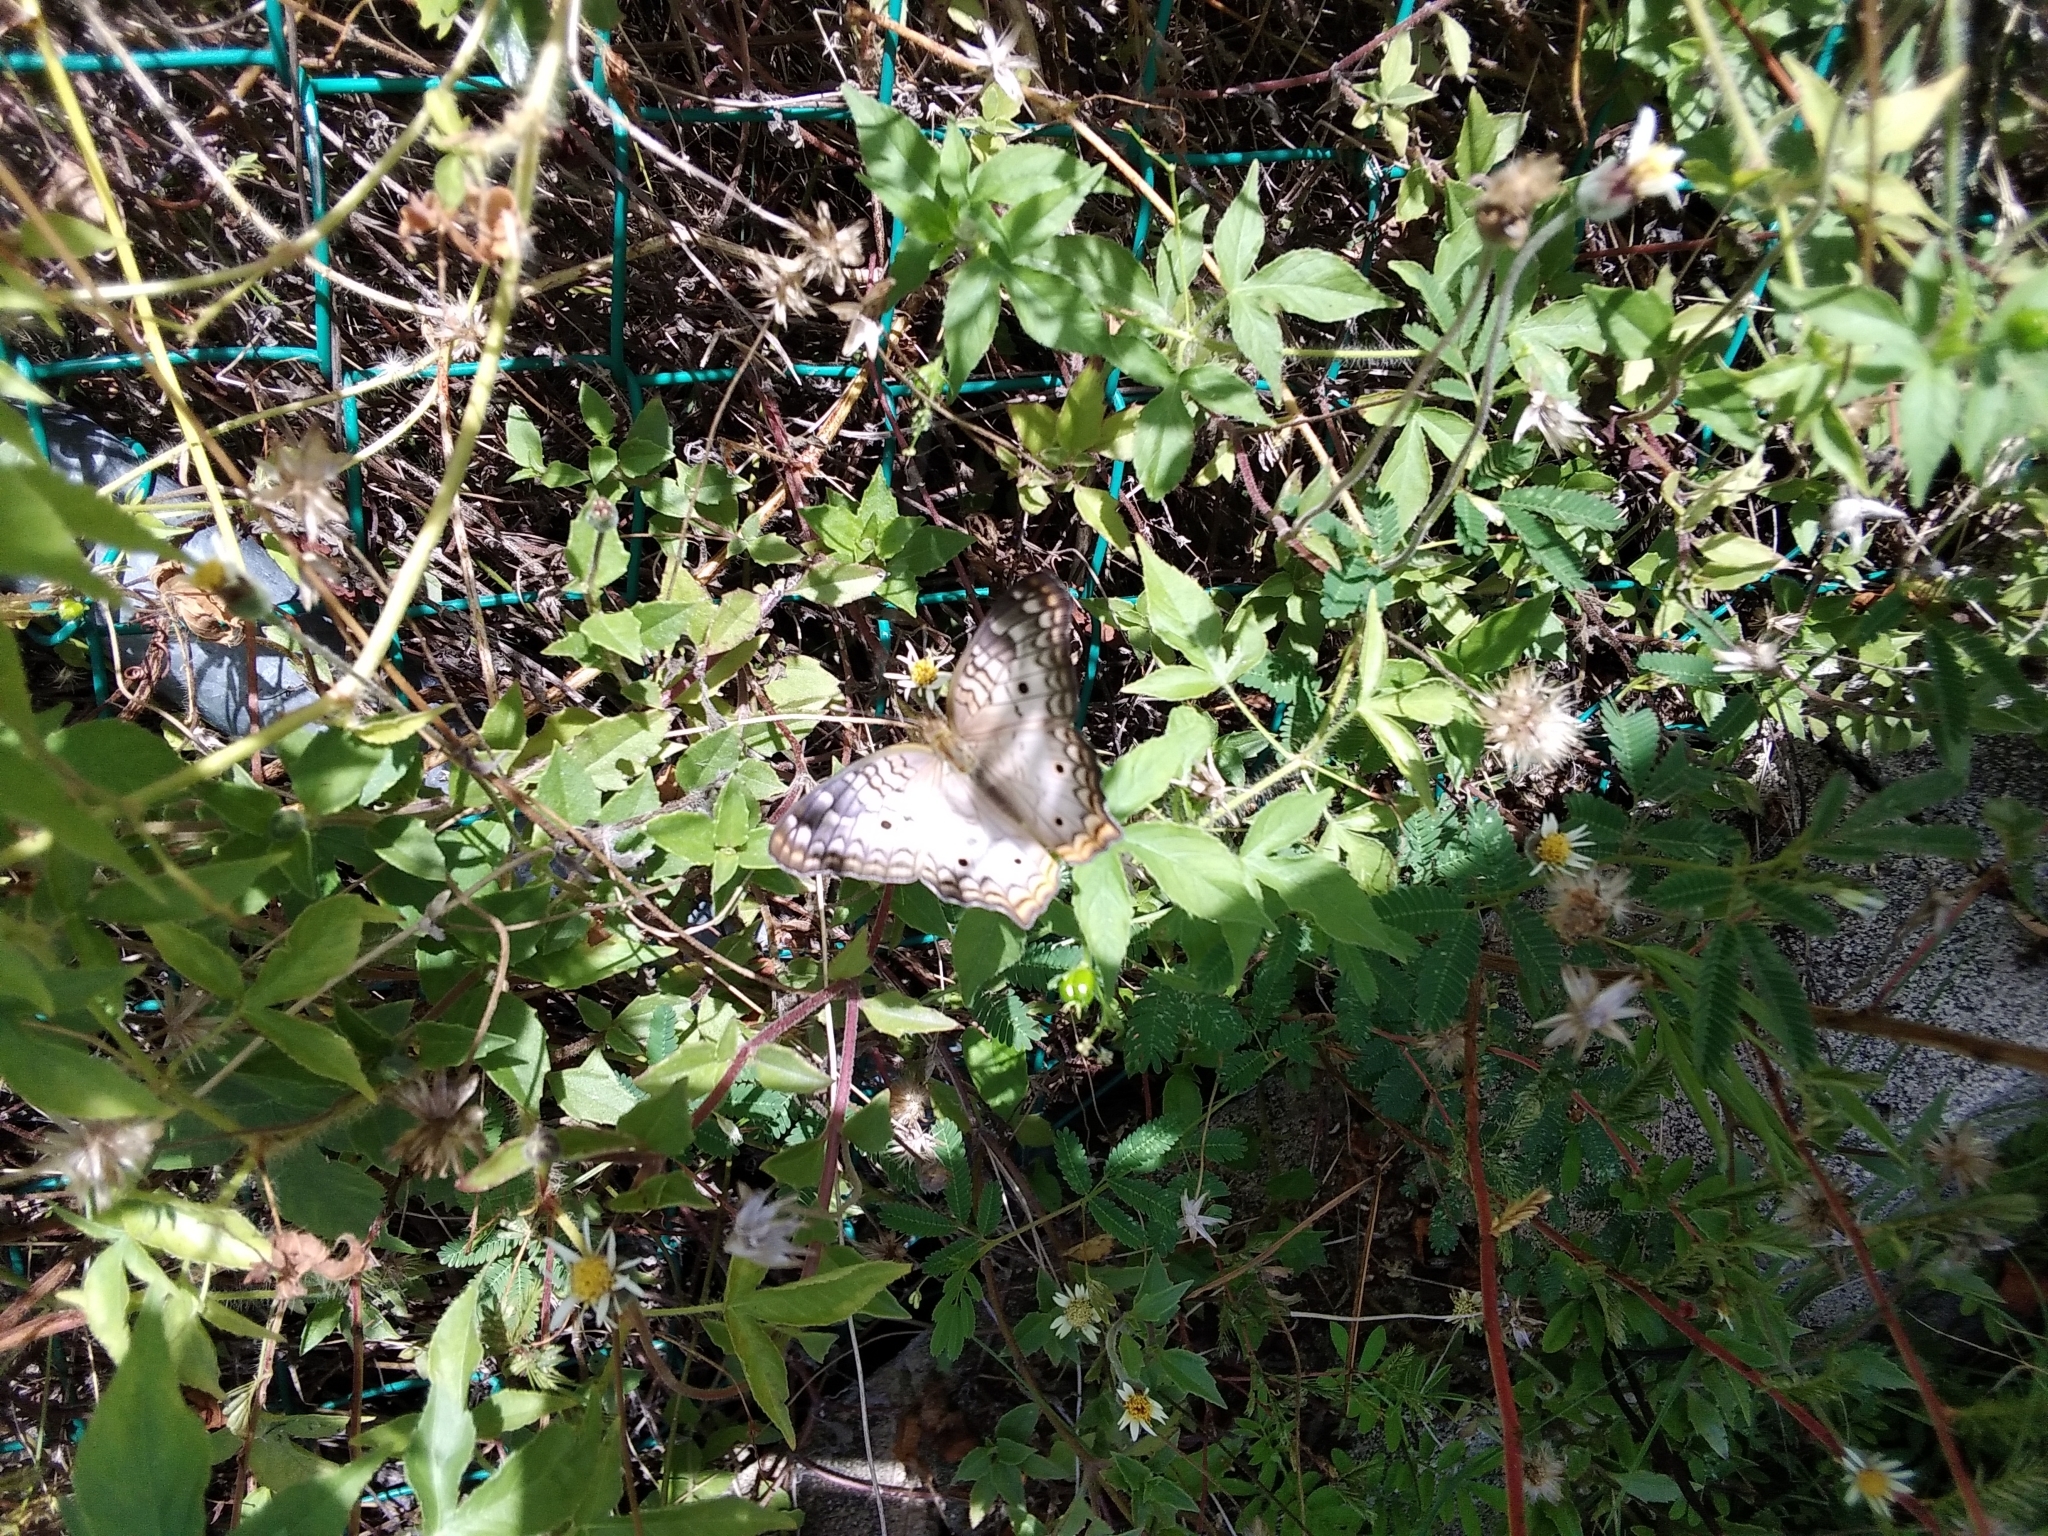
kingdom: Animalia
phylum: Arthropoda
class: Insecta
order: Lepidoptera
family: Nymphalidae
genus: Anartia
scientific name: Anartia jatrophae
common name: White peacock
